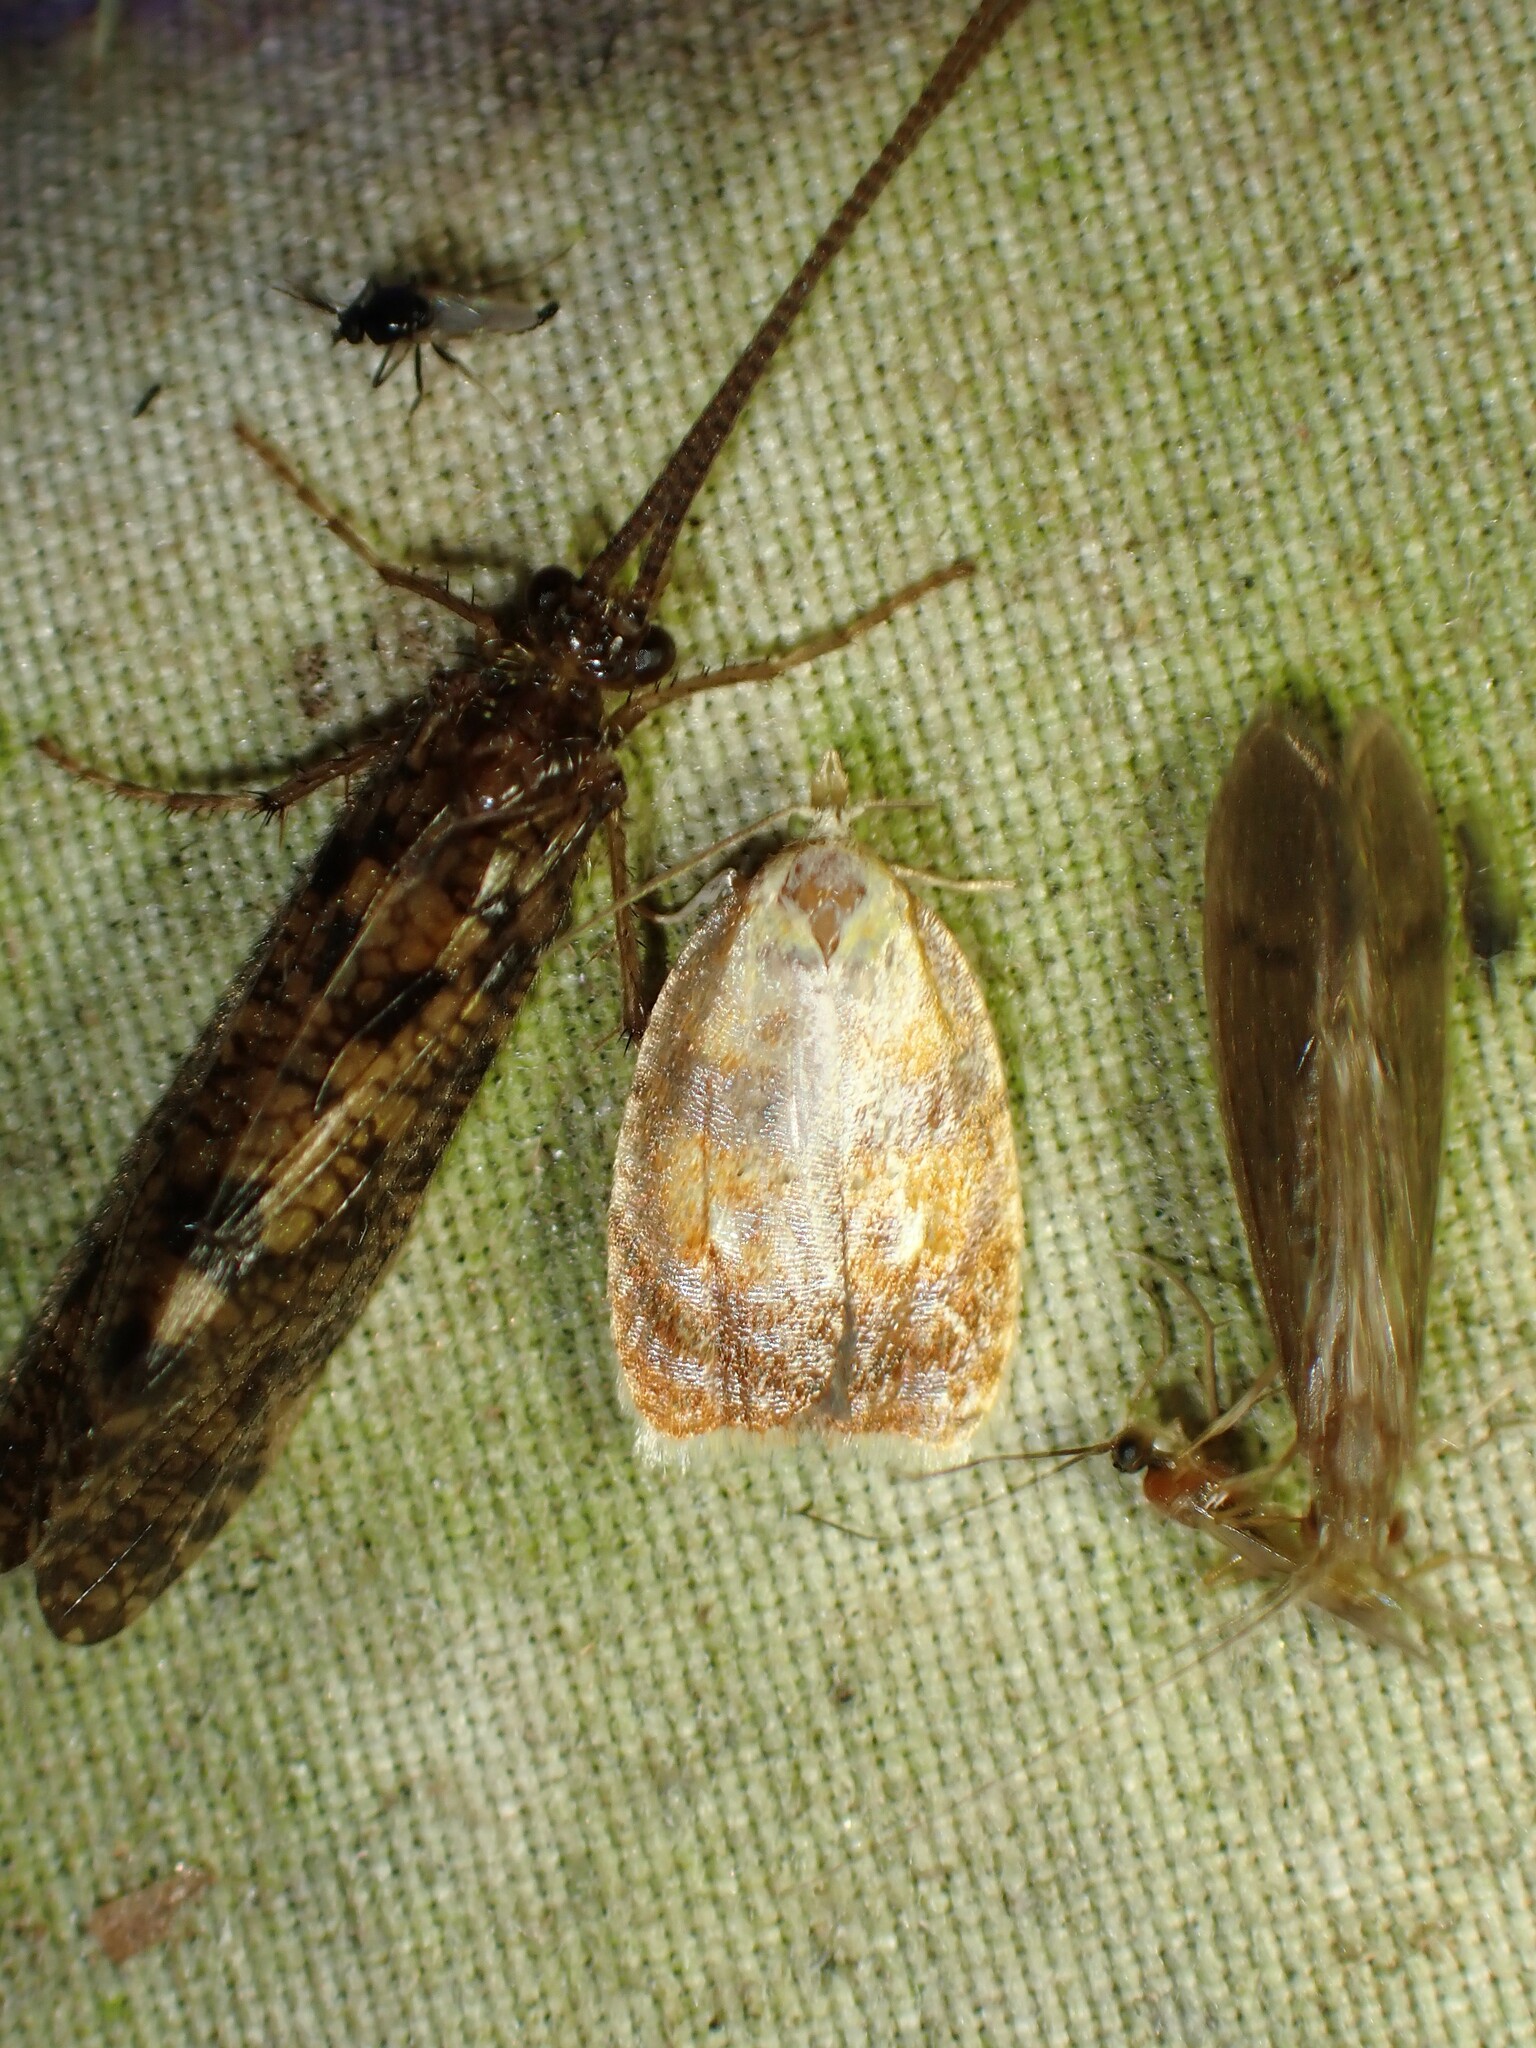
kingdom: Animalia
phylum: Arthropoda
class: Insecta
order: Lepidoptera
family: Tortricidae
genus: Acleris
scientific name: Acleris curvalana
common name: Blueberry leaftier moth
